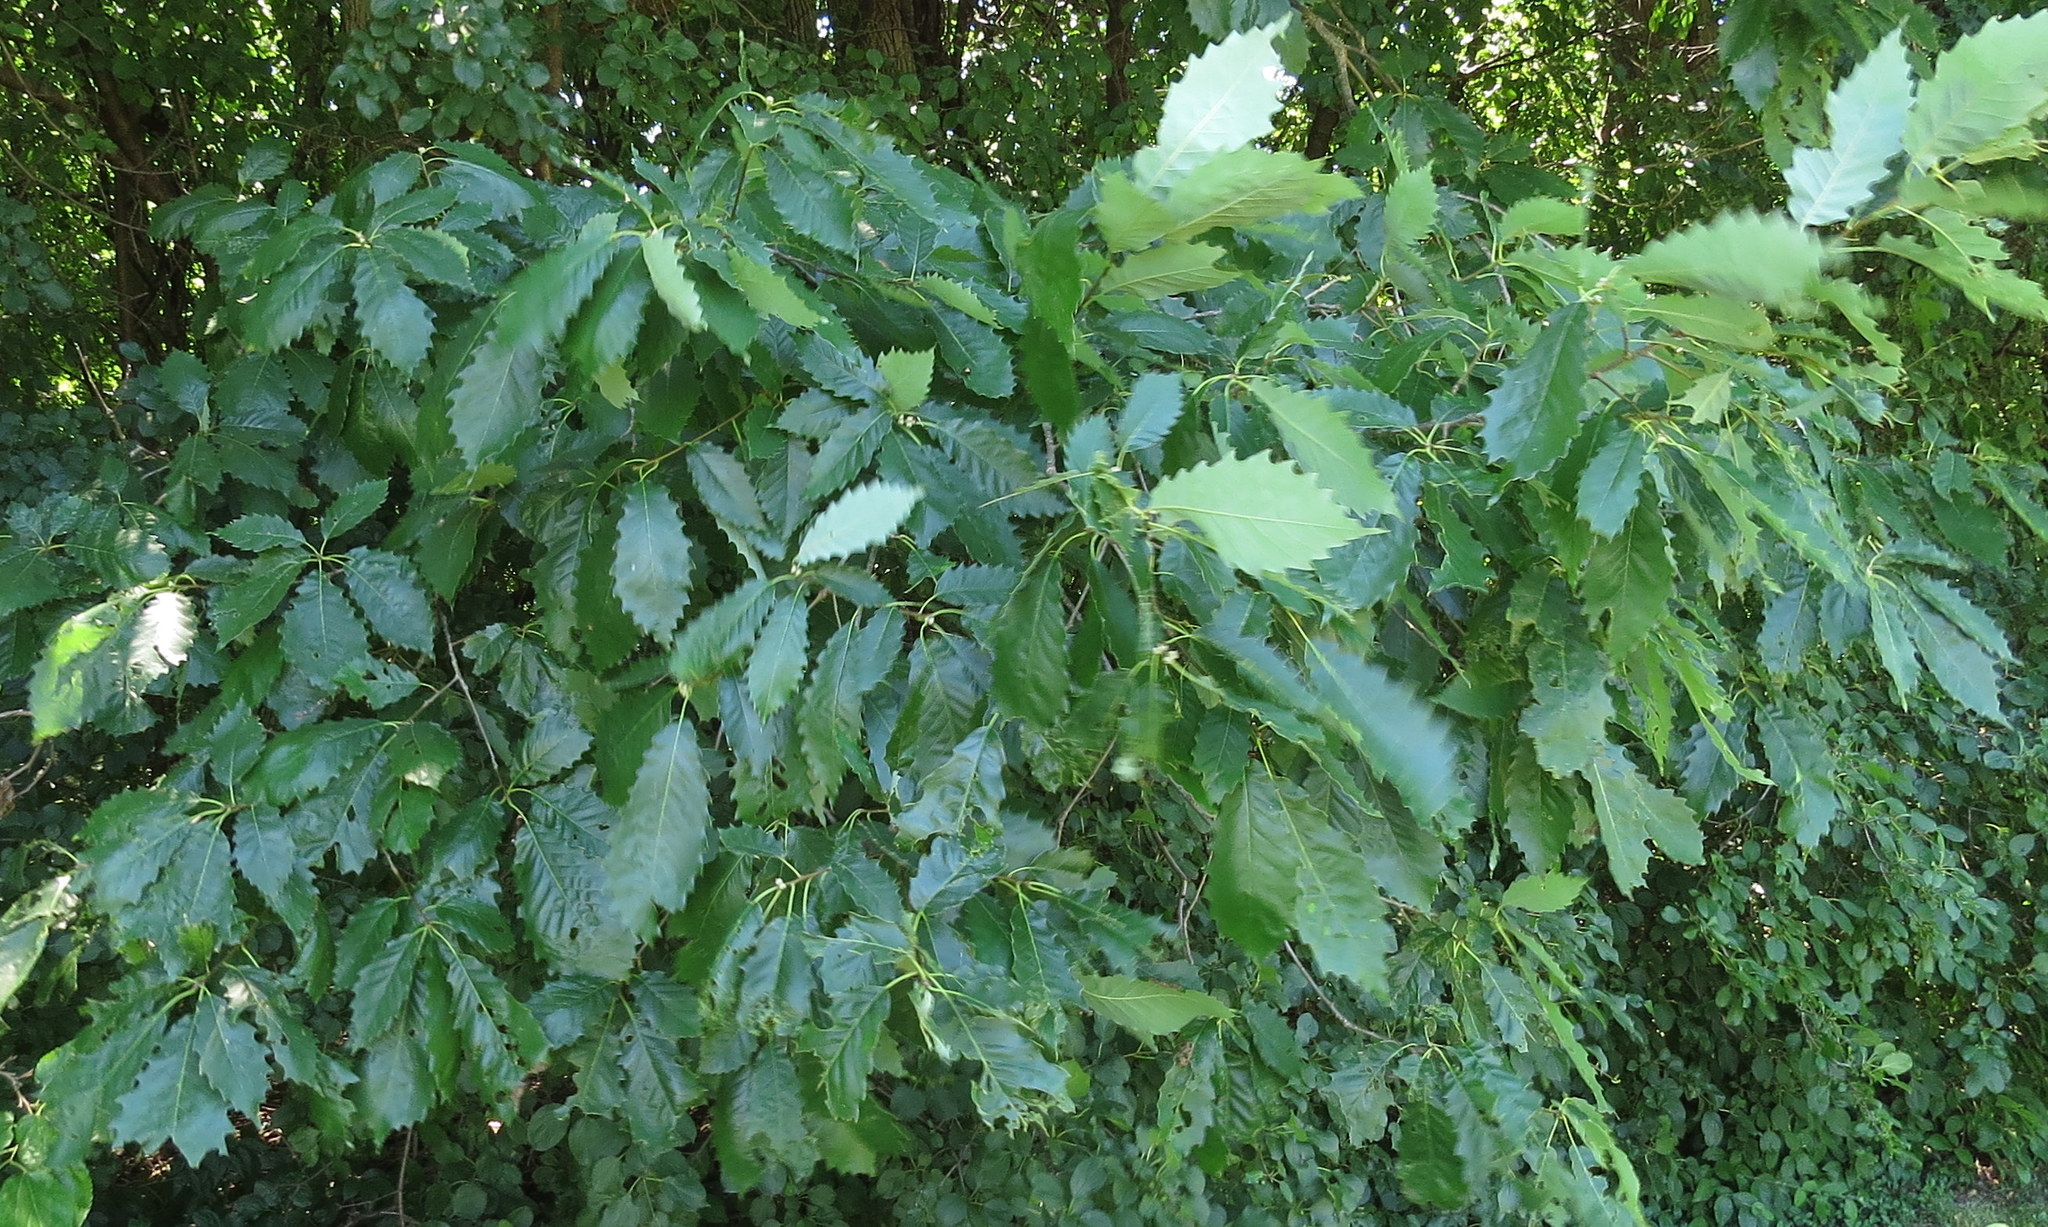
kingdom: Plantae
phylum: Tracheophyta
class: Magnoliopsida
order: Fagales
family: Fagaceae
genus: Quercus
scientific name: Quercus muehlenbergii
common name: Chinkapin oak
